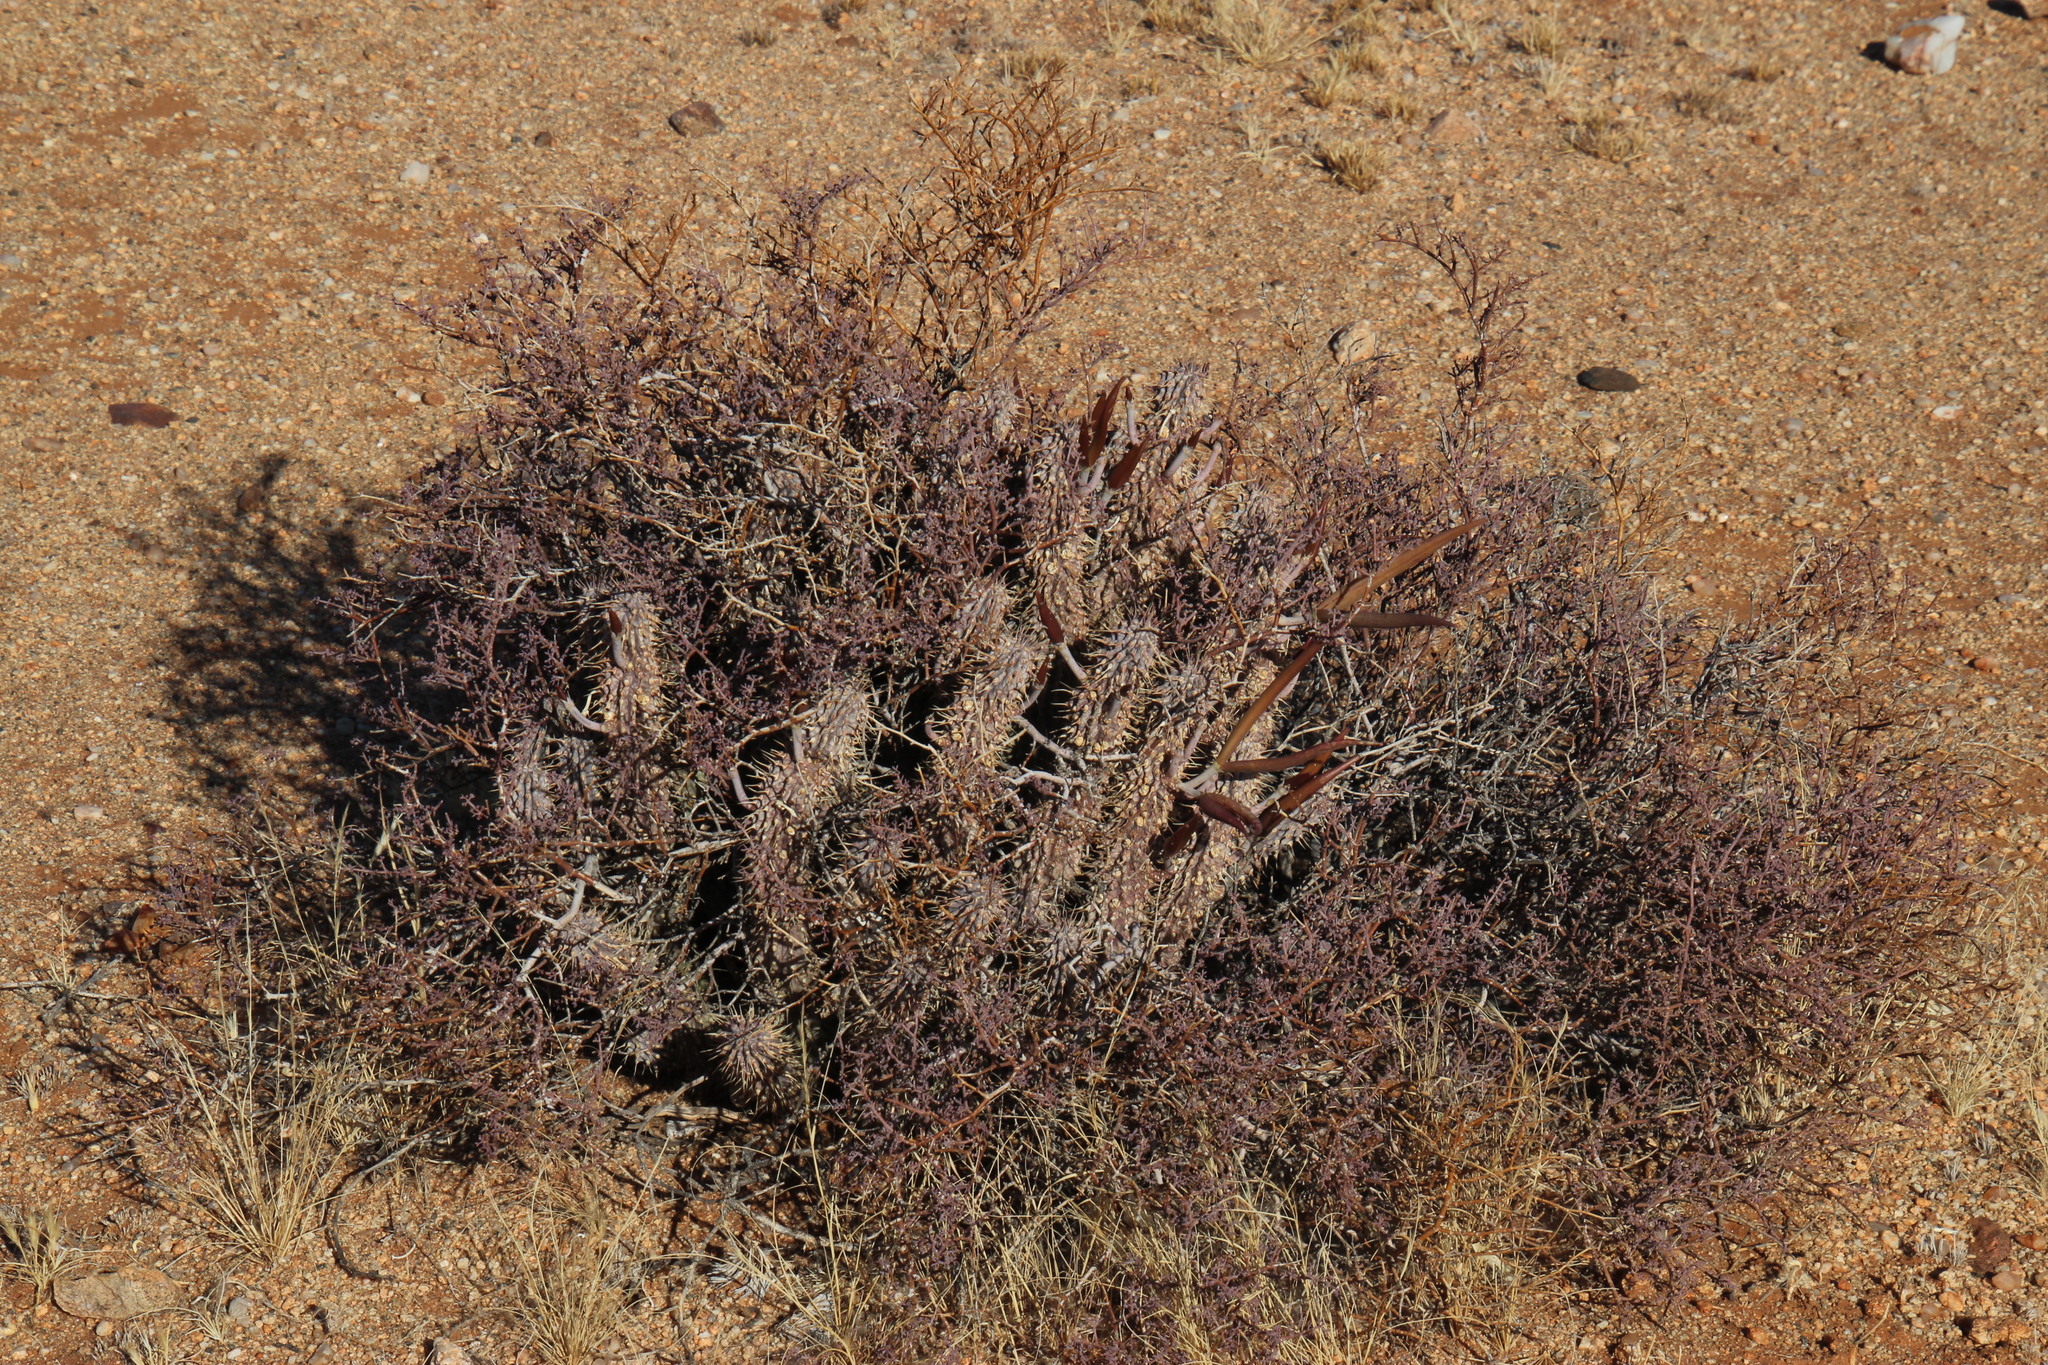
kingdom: Plantae
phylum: Tracheophyta
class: Magnoliopsida
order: Gentianales
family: Apocynaceae
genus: Hoodia
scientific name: Hoodia gordonii
